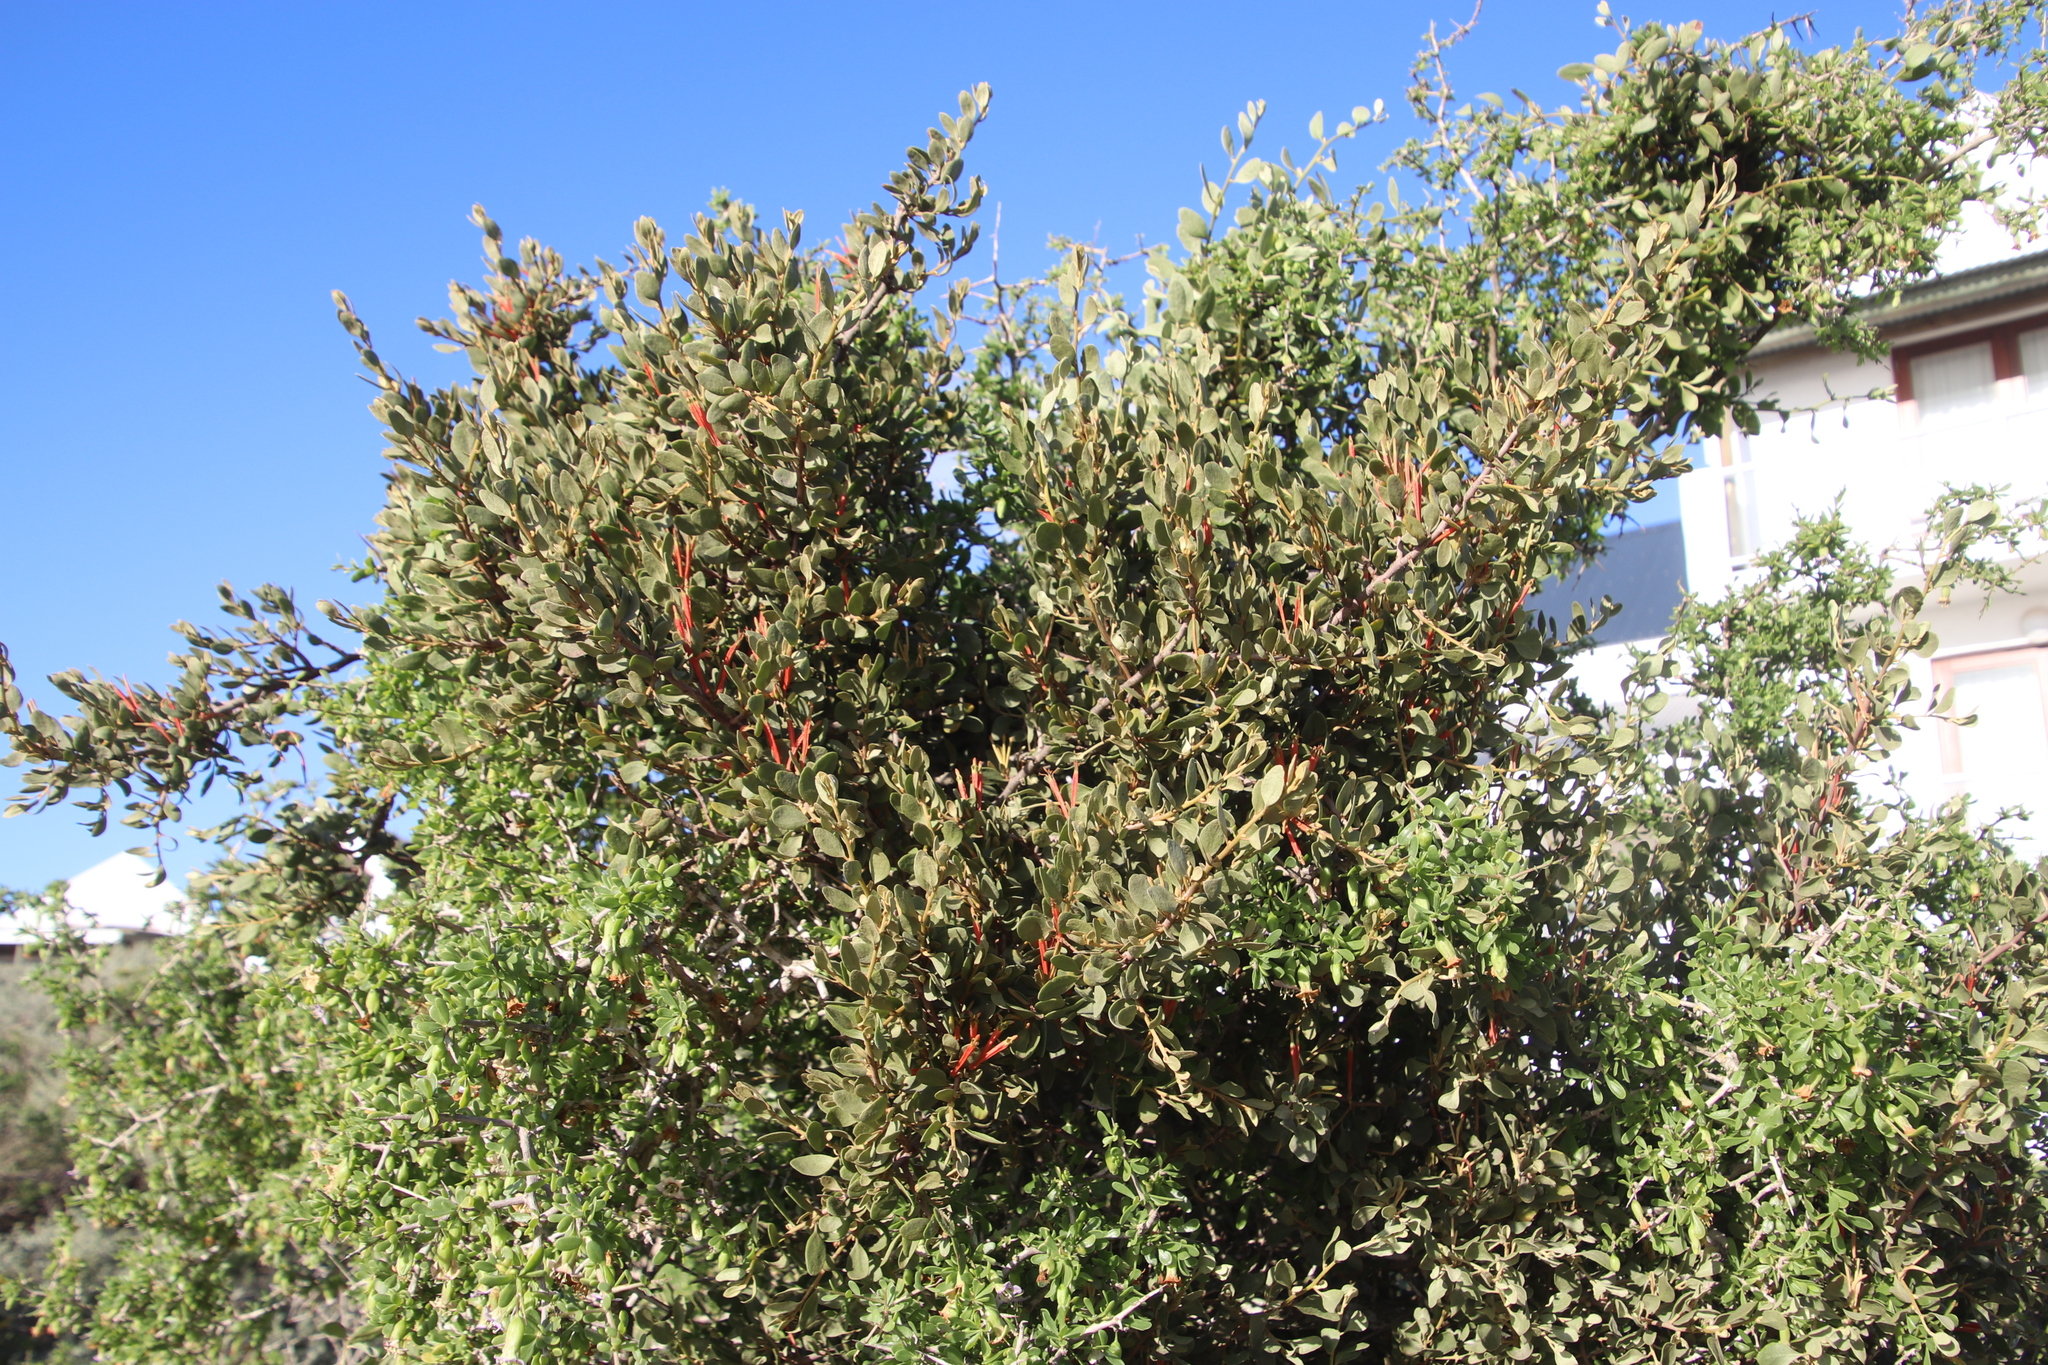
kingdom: Plantae
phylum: Tracheophyta
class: Magnoliopsida
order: Santalales
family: Loranthaceae
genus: Septulina
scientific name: Septulina glauca
